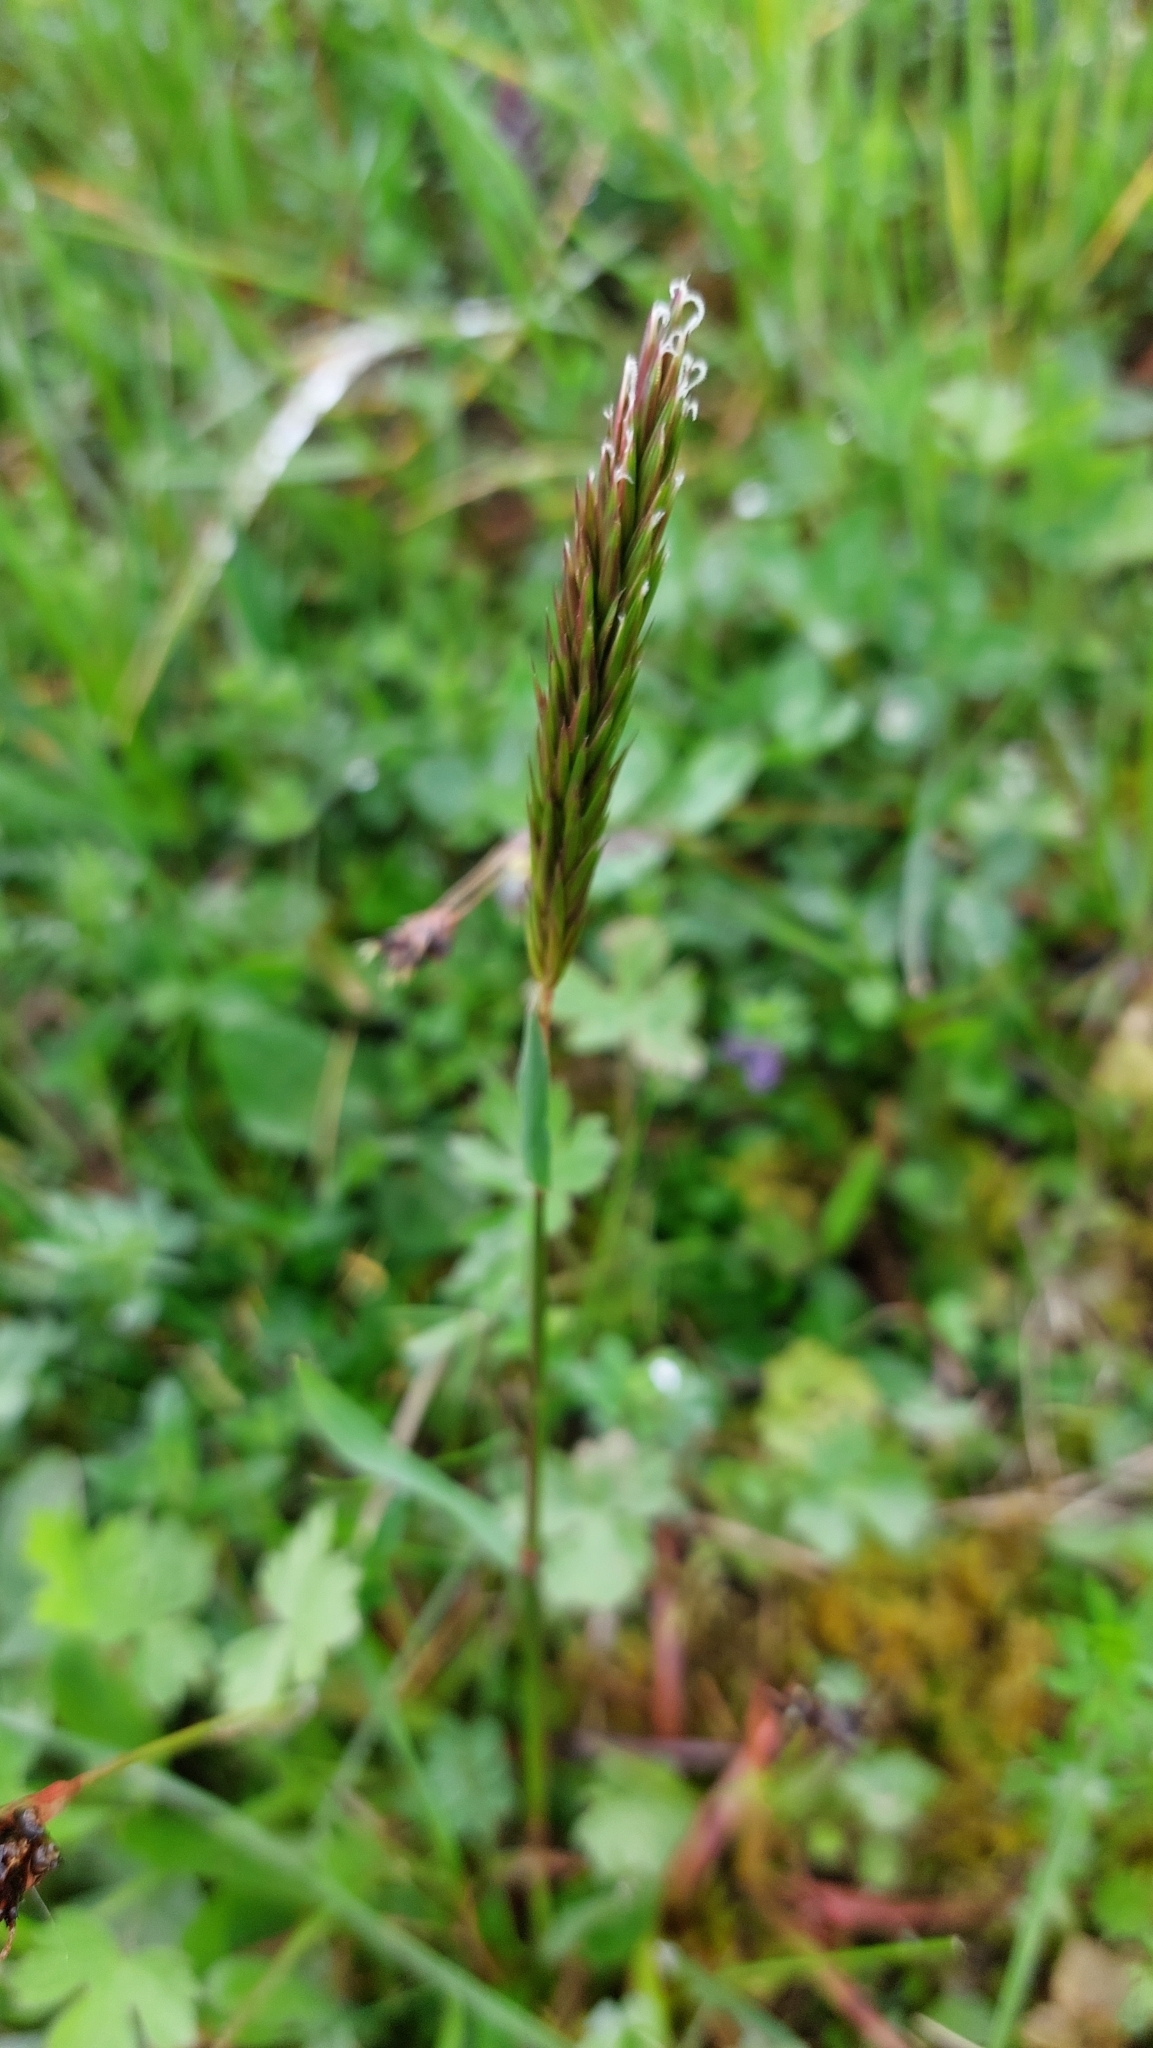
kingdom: Plantae
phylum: Tracheophyta
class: Liliopsida
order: Poales
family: Poaceae
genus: Anthoxanthum
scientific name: Anthoxanthum odoratum
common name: Sweet vernalgrass
